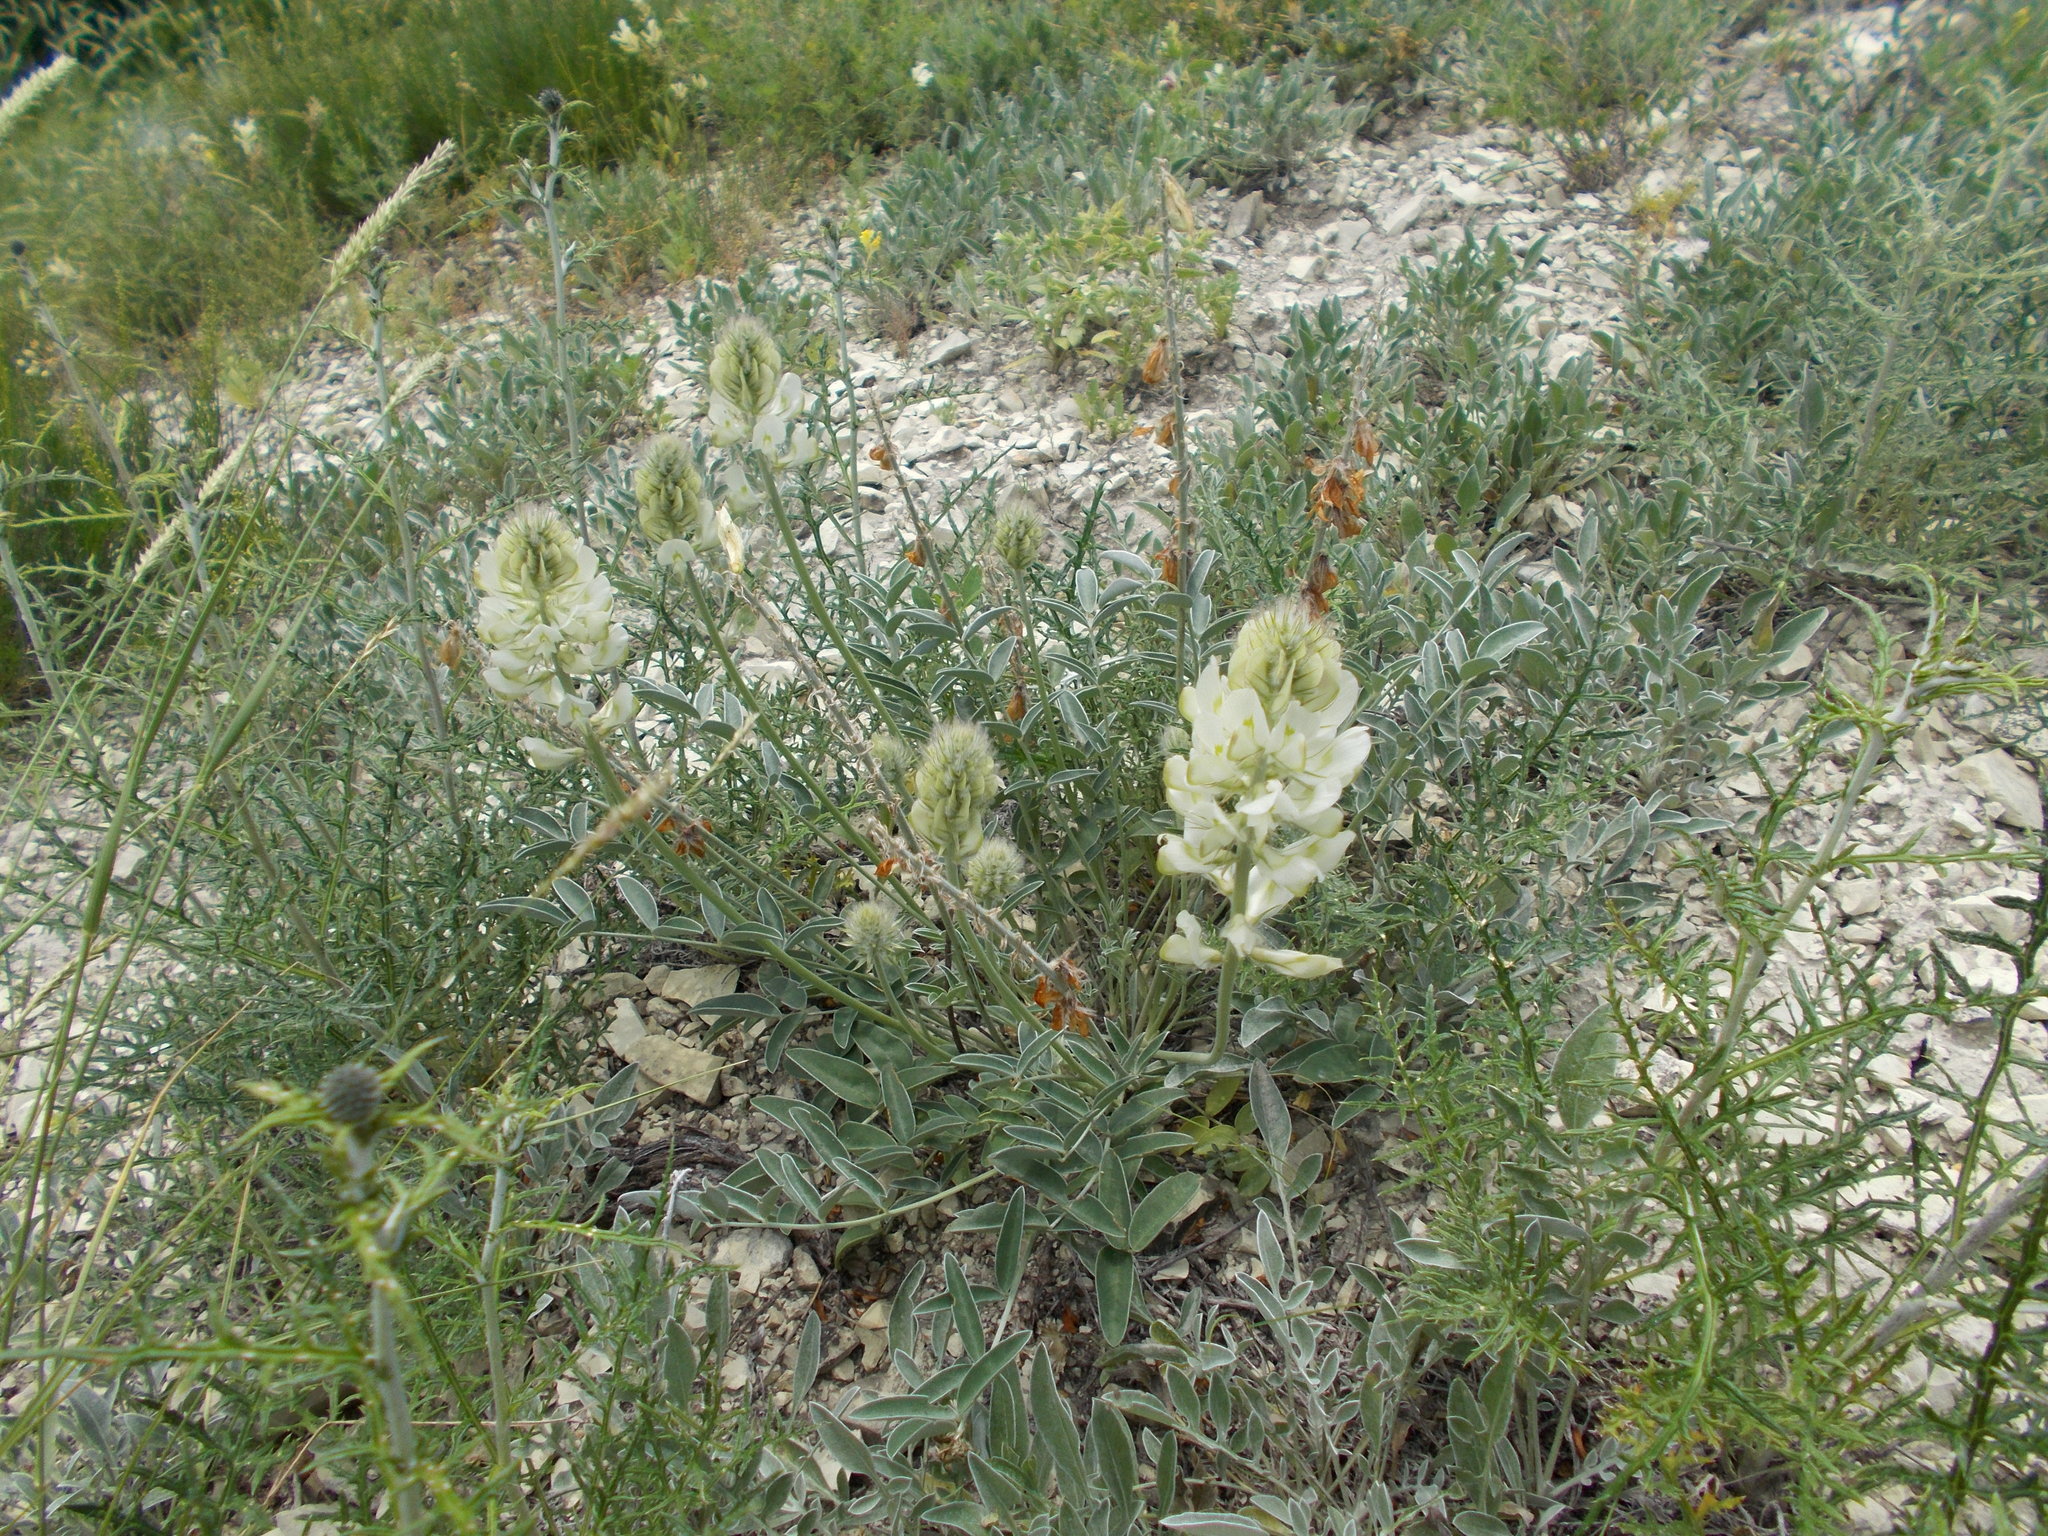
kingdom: Plantae
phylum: Tracheophyta
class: Magnoliopsida
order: Fabales
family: Fabaceae
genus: Hedysarum
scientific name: Hedysarum grandiflorum
